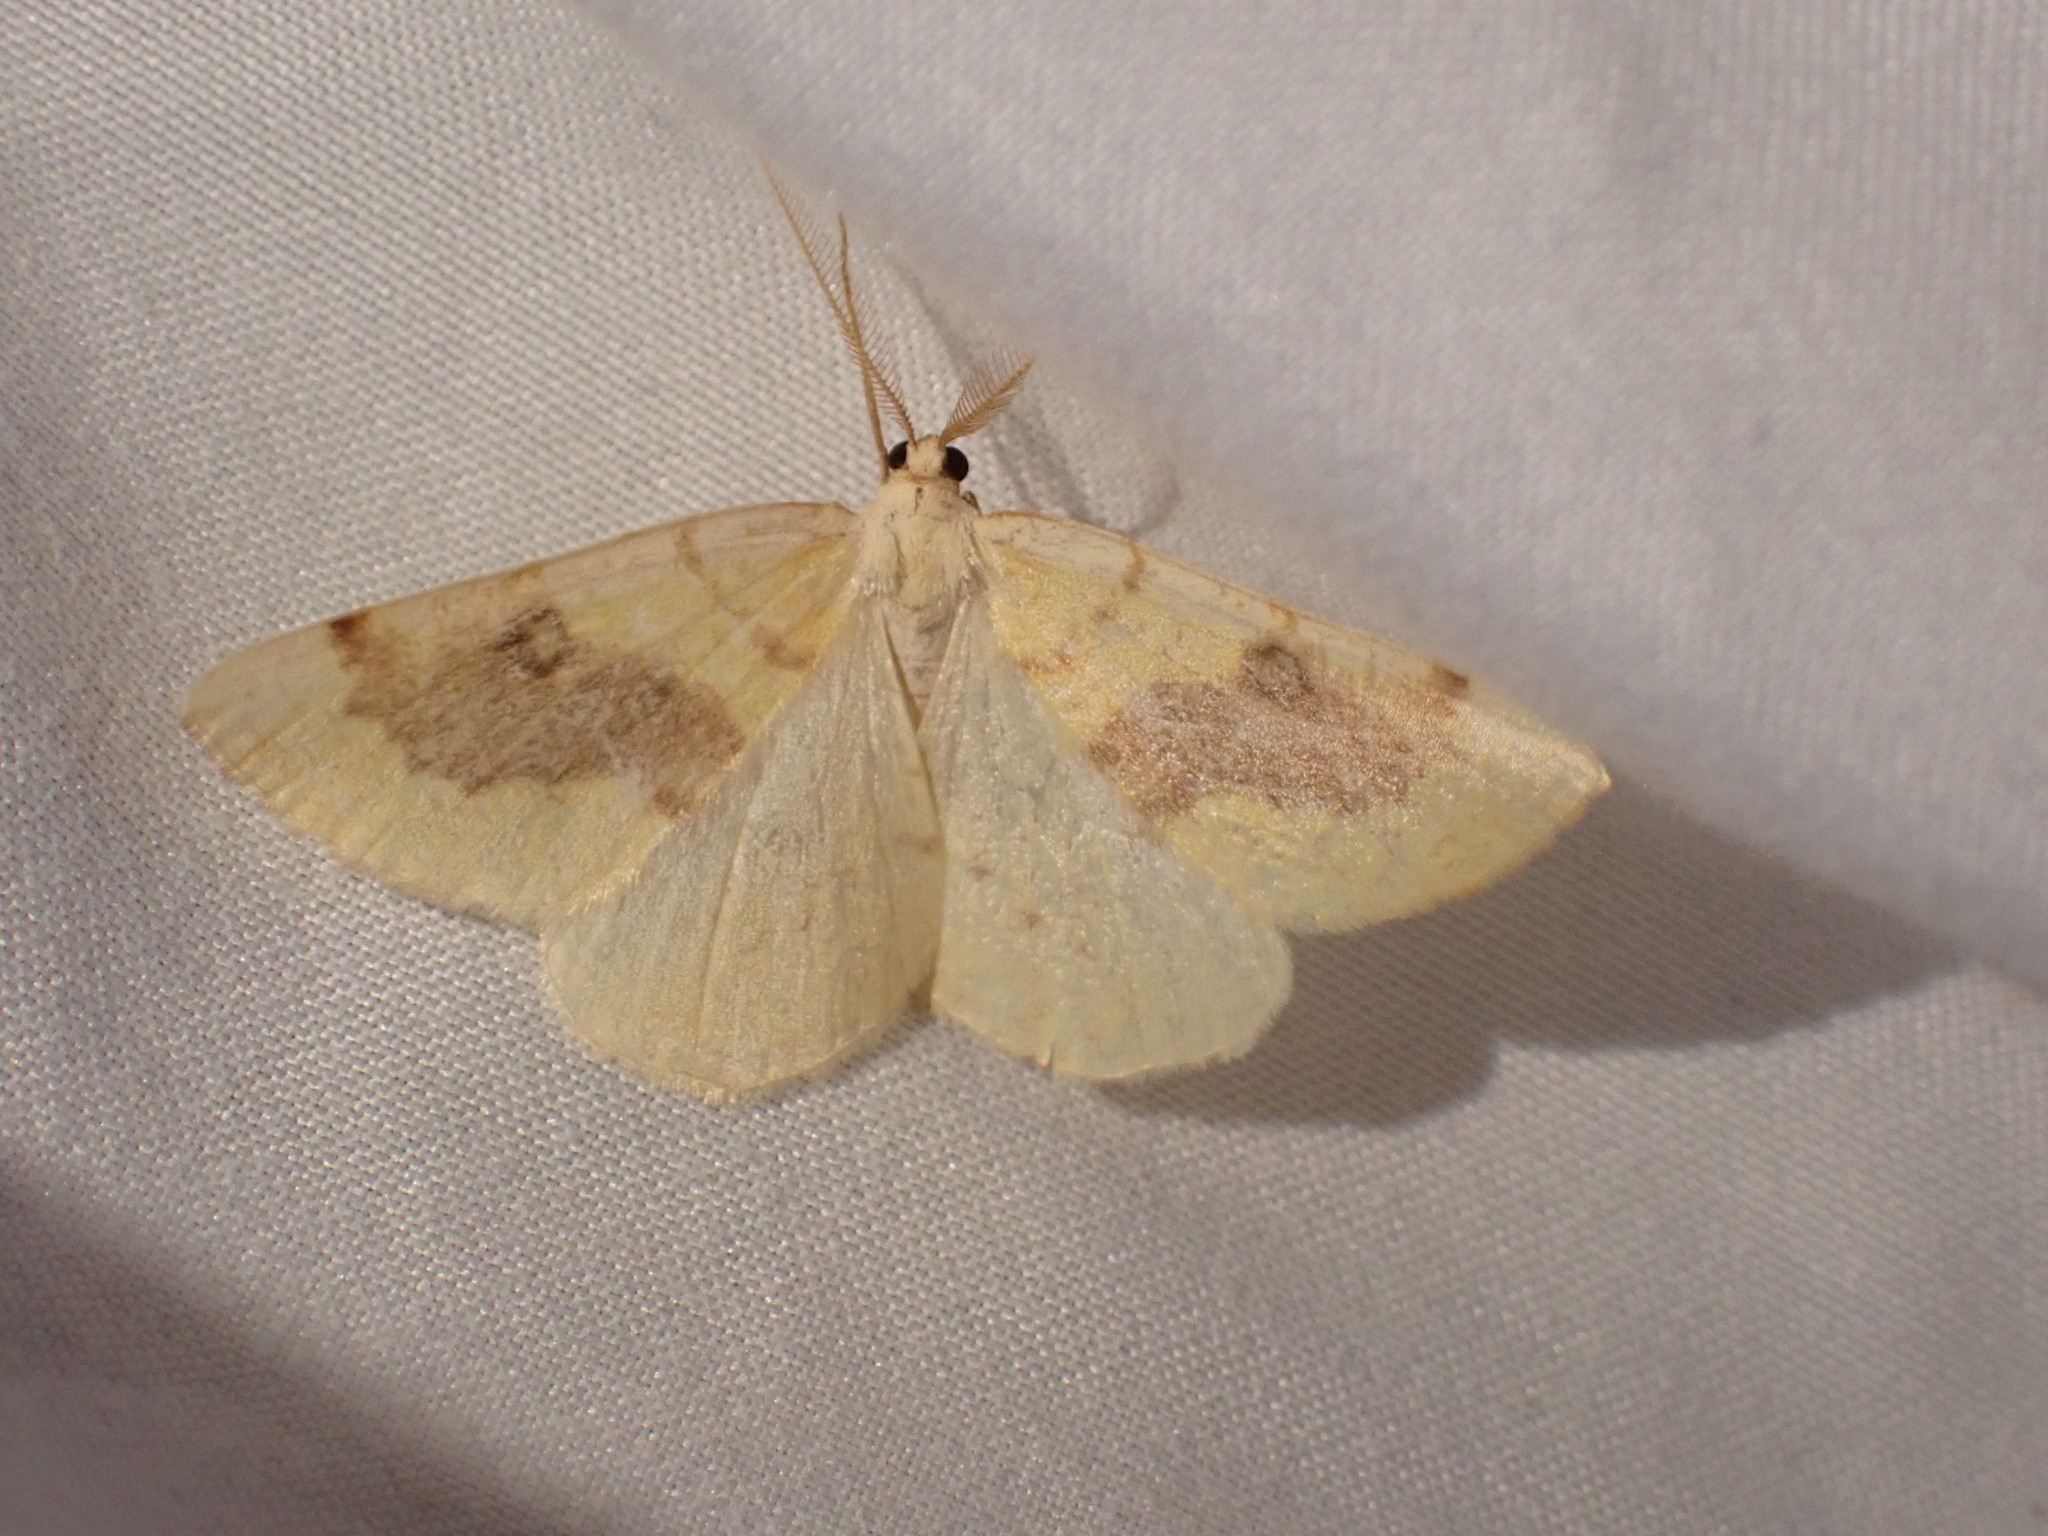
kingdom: Animalia
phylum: Arthropoda
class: Insecta
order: Lepidoptera
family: Geometridae
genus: Hesperumia
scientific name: Hesperumia sulphuraria
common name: Sulphur moth
